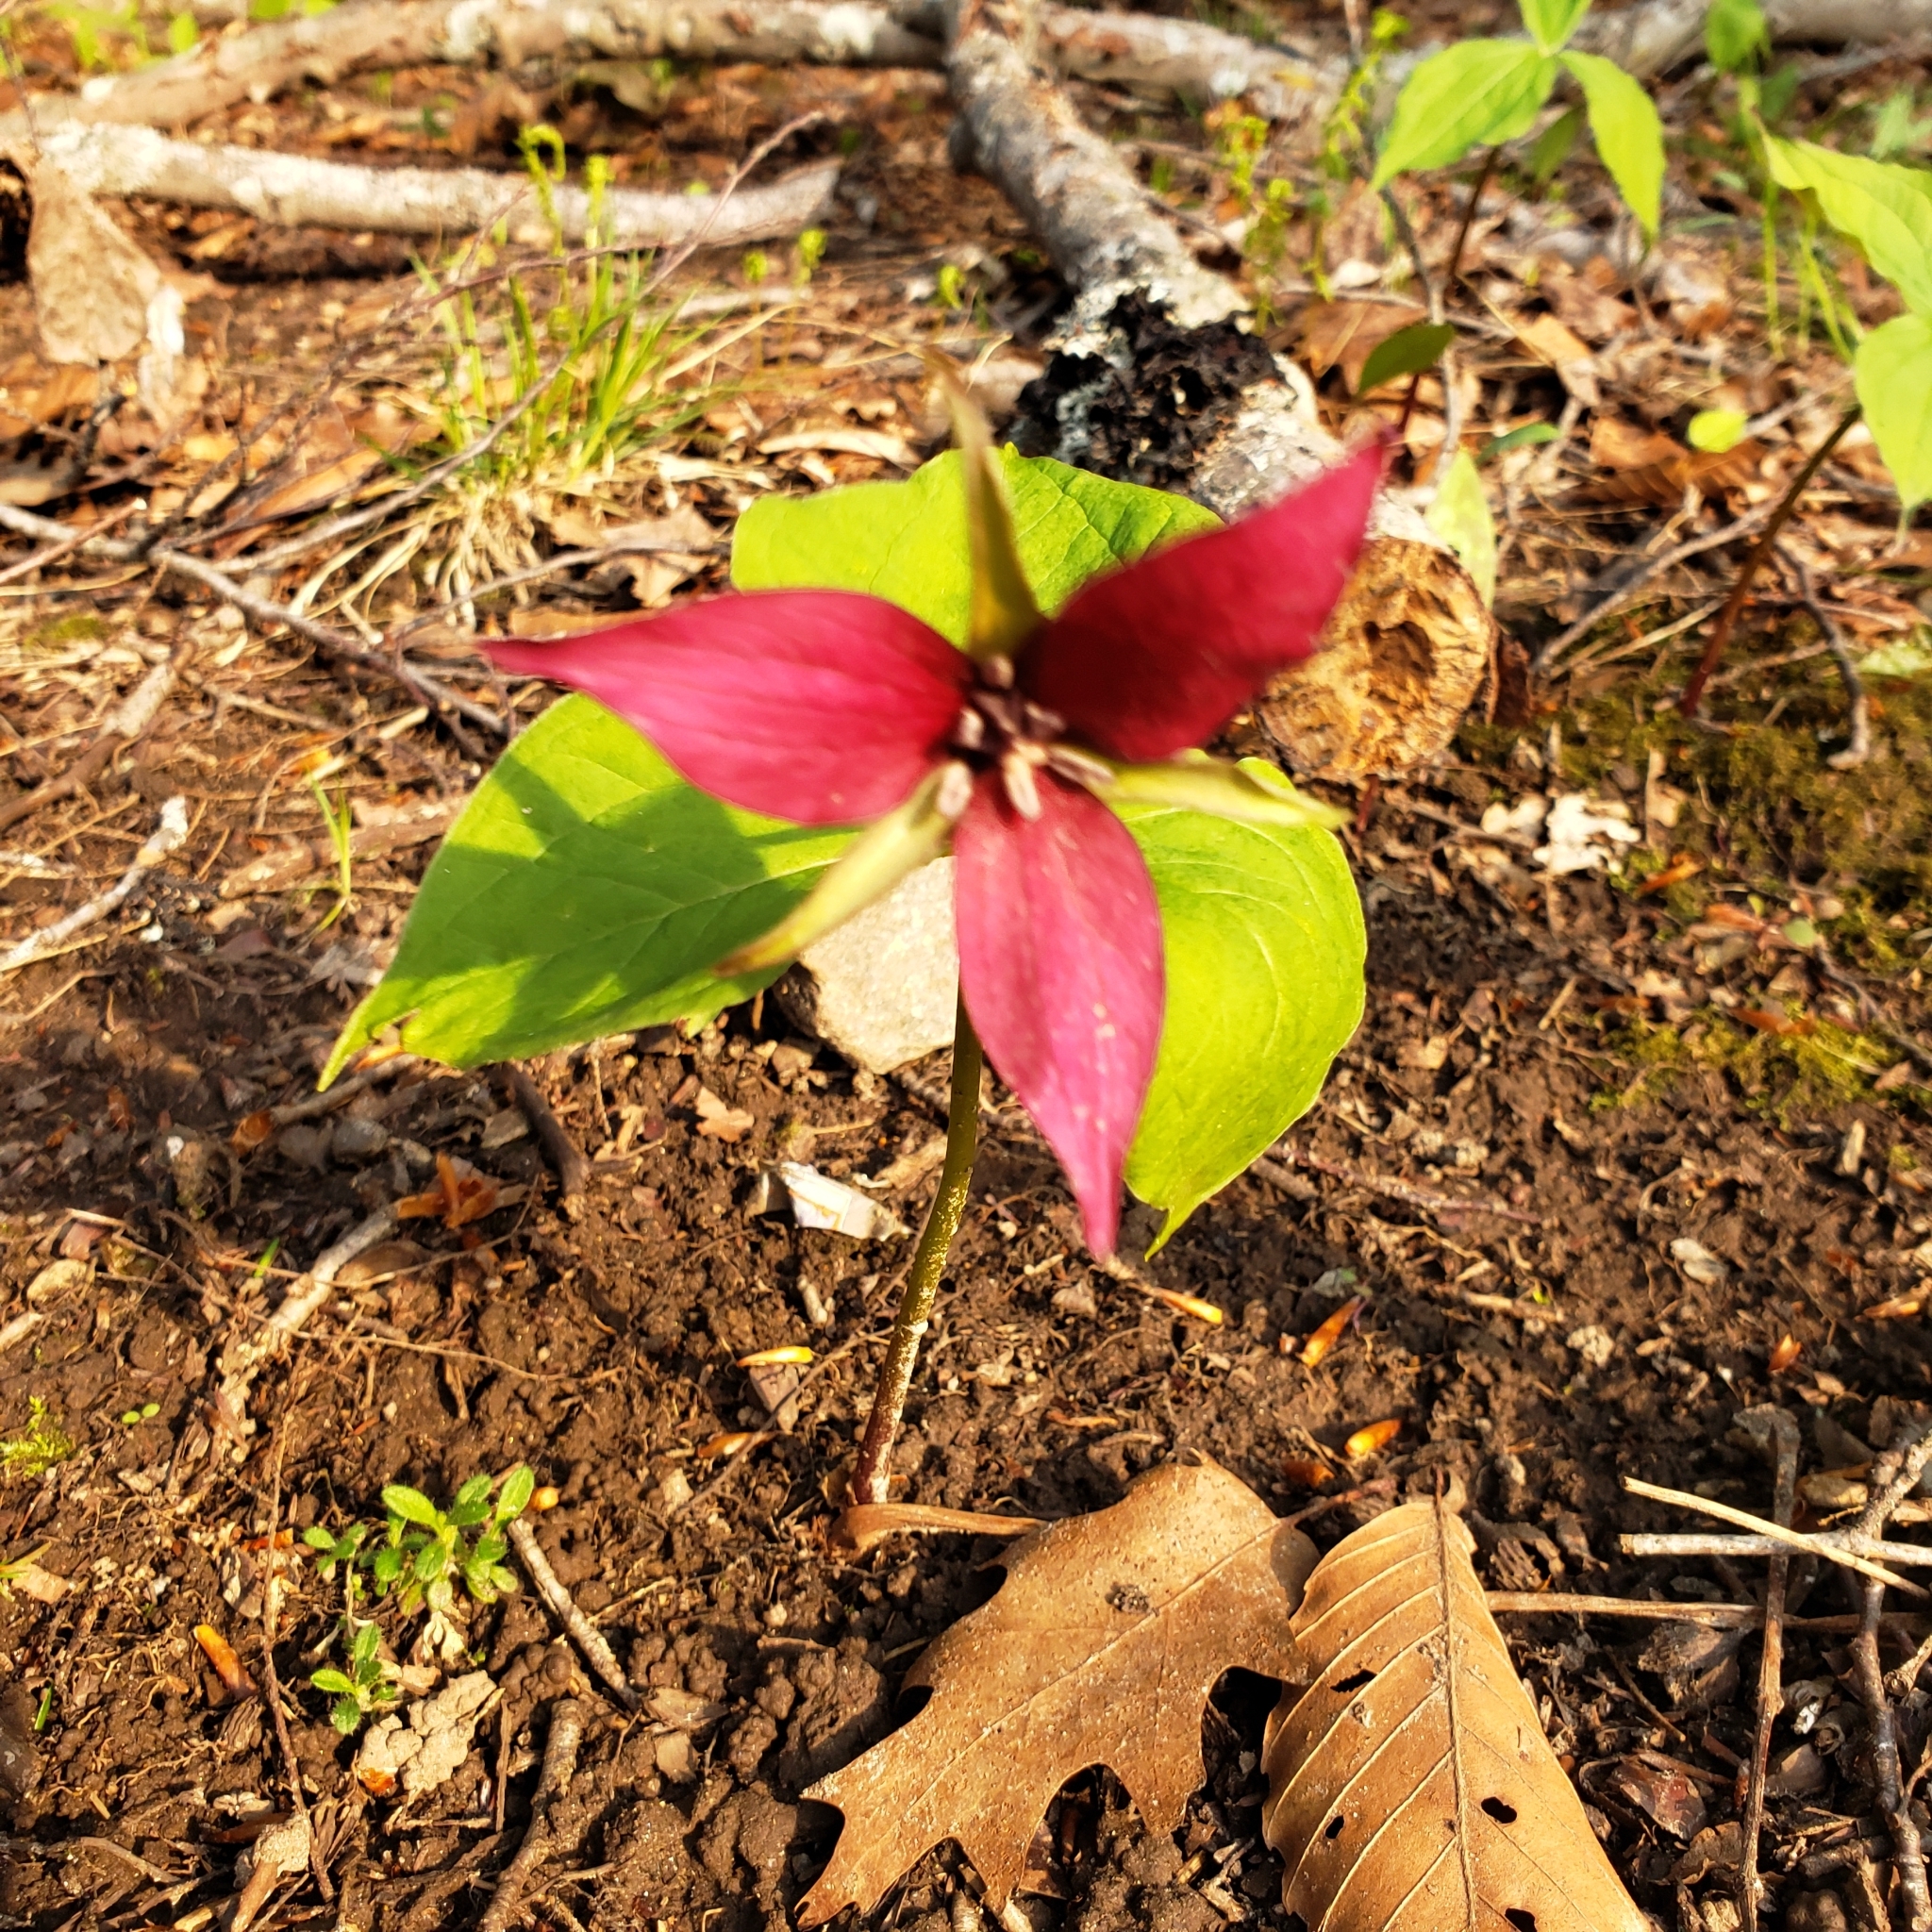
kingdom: Plantae
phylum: Tracheophyta
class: Liliopsida
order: Liliales
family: Melanthiaceae
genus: Trillium
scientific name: Trillium erectum
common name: Purple trillium
